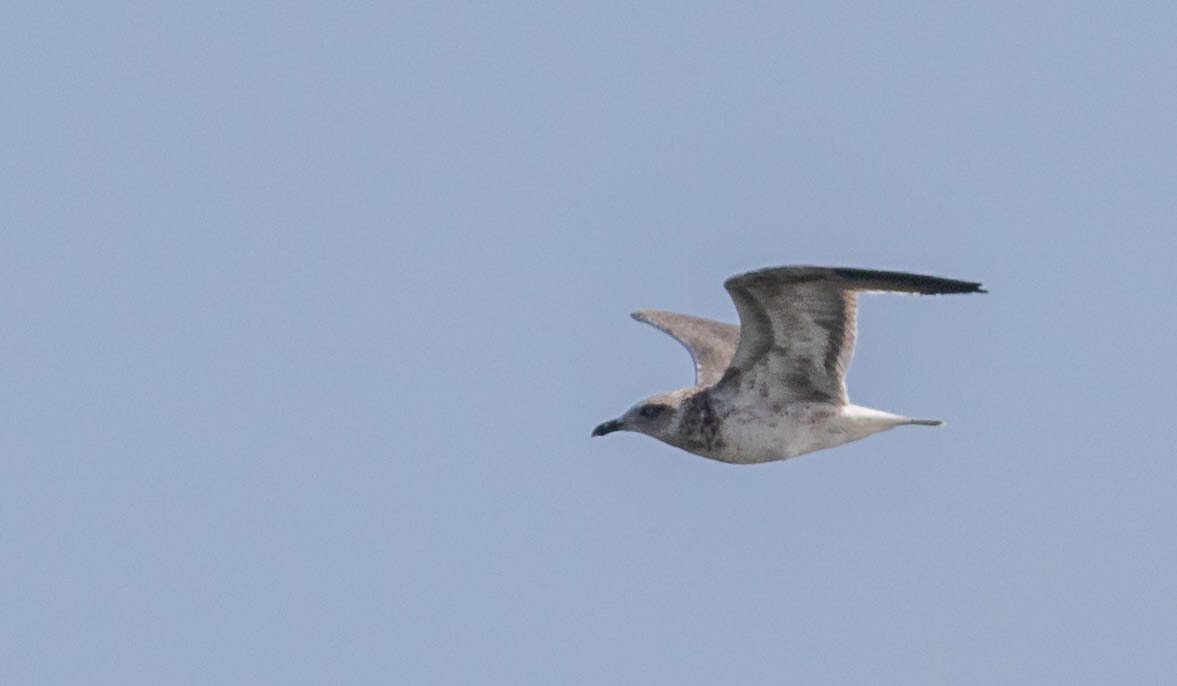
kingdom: Animalia
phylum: Chordata
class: Aves
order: Charadriiformes
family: Laridae
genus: Larus
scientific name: Larus fuscus
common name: Lesser black-backed gull
